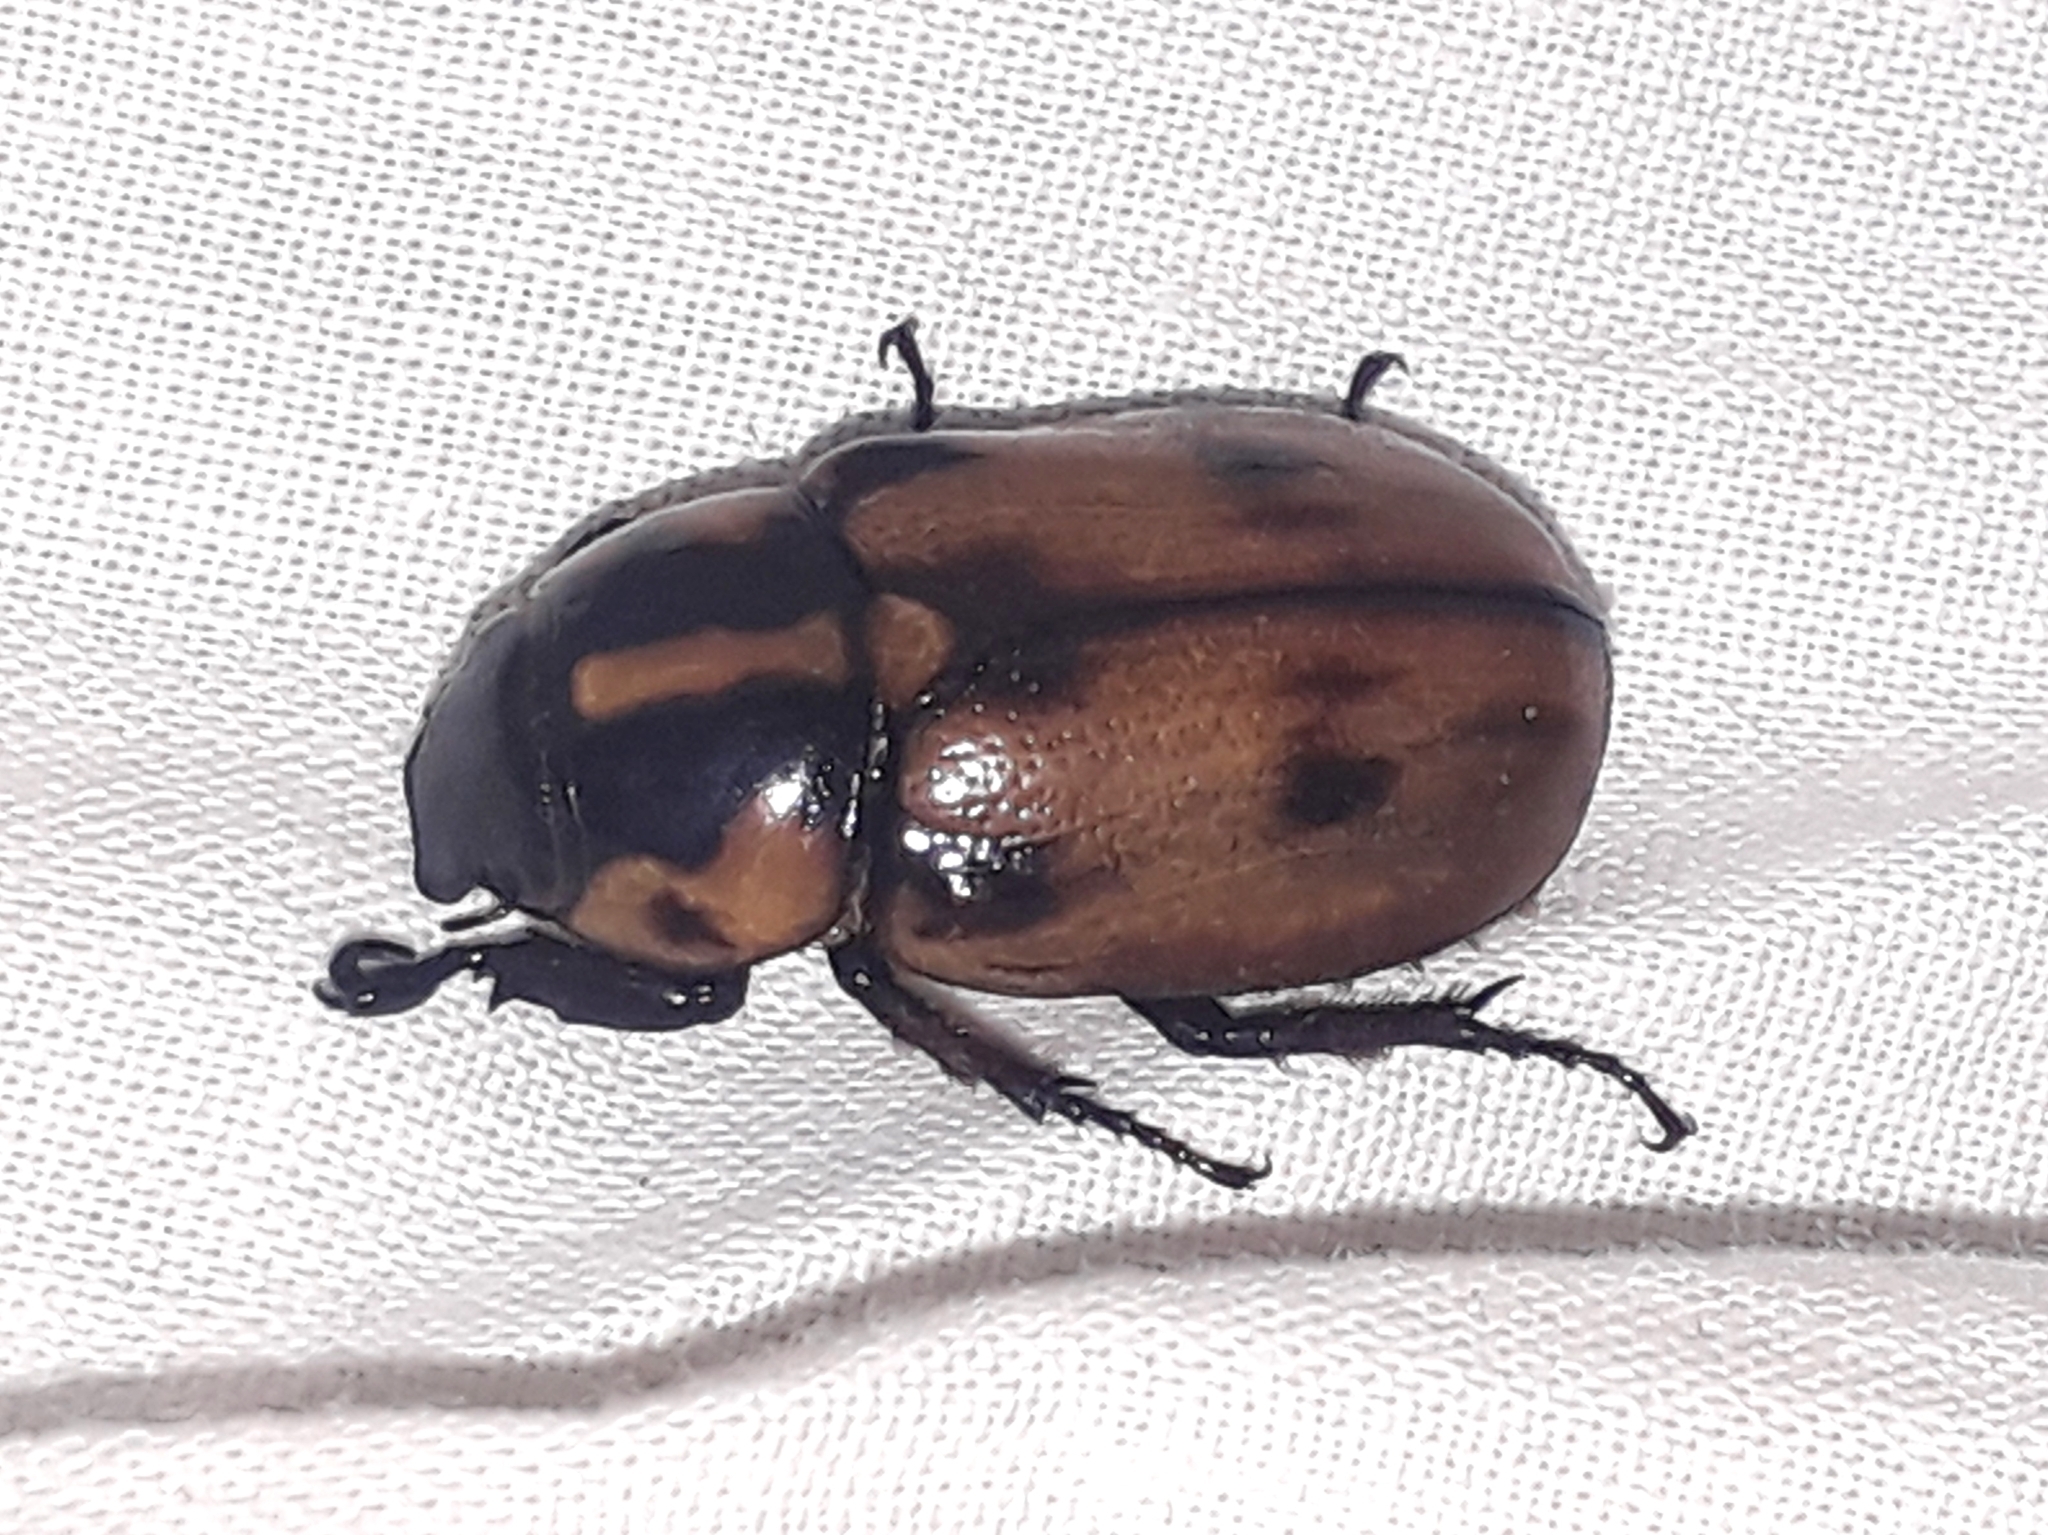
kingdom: Animalia
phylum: Arthropoda
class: Insecta
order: Coleoptera
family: Scarabaeidae
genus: Cyclocephala
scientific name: Cyclocephala mafaffa
